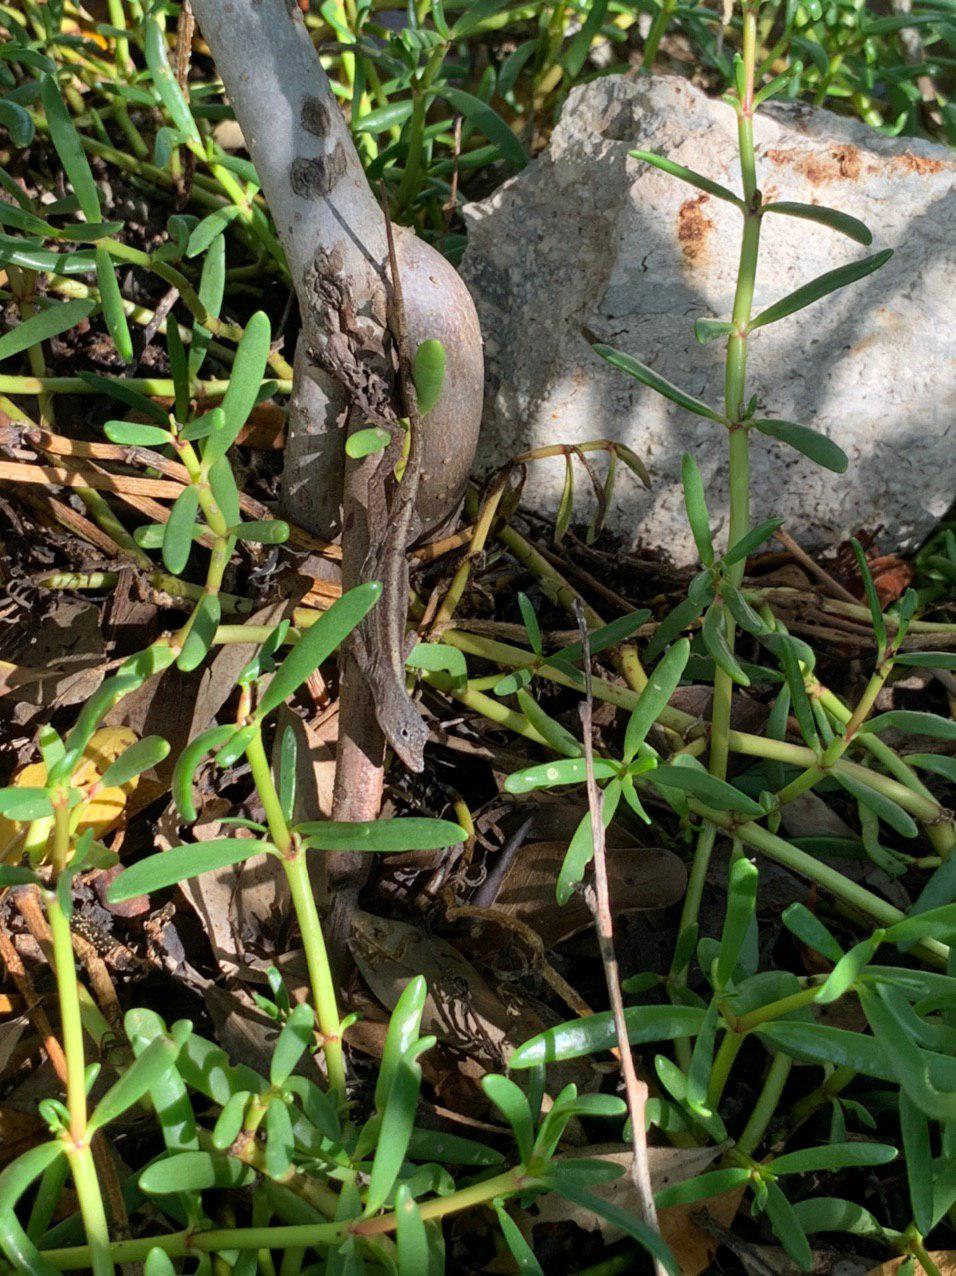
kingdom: Animalia
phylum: Chordata
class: Squamata
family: Dactyloidae
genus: Anolis
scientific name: Anolis sagrei
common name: Brown anole
